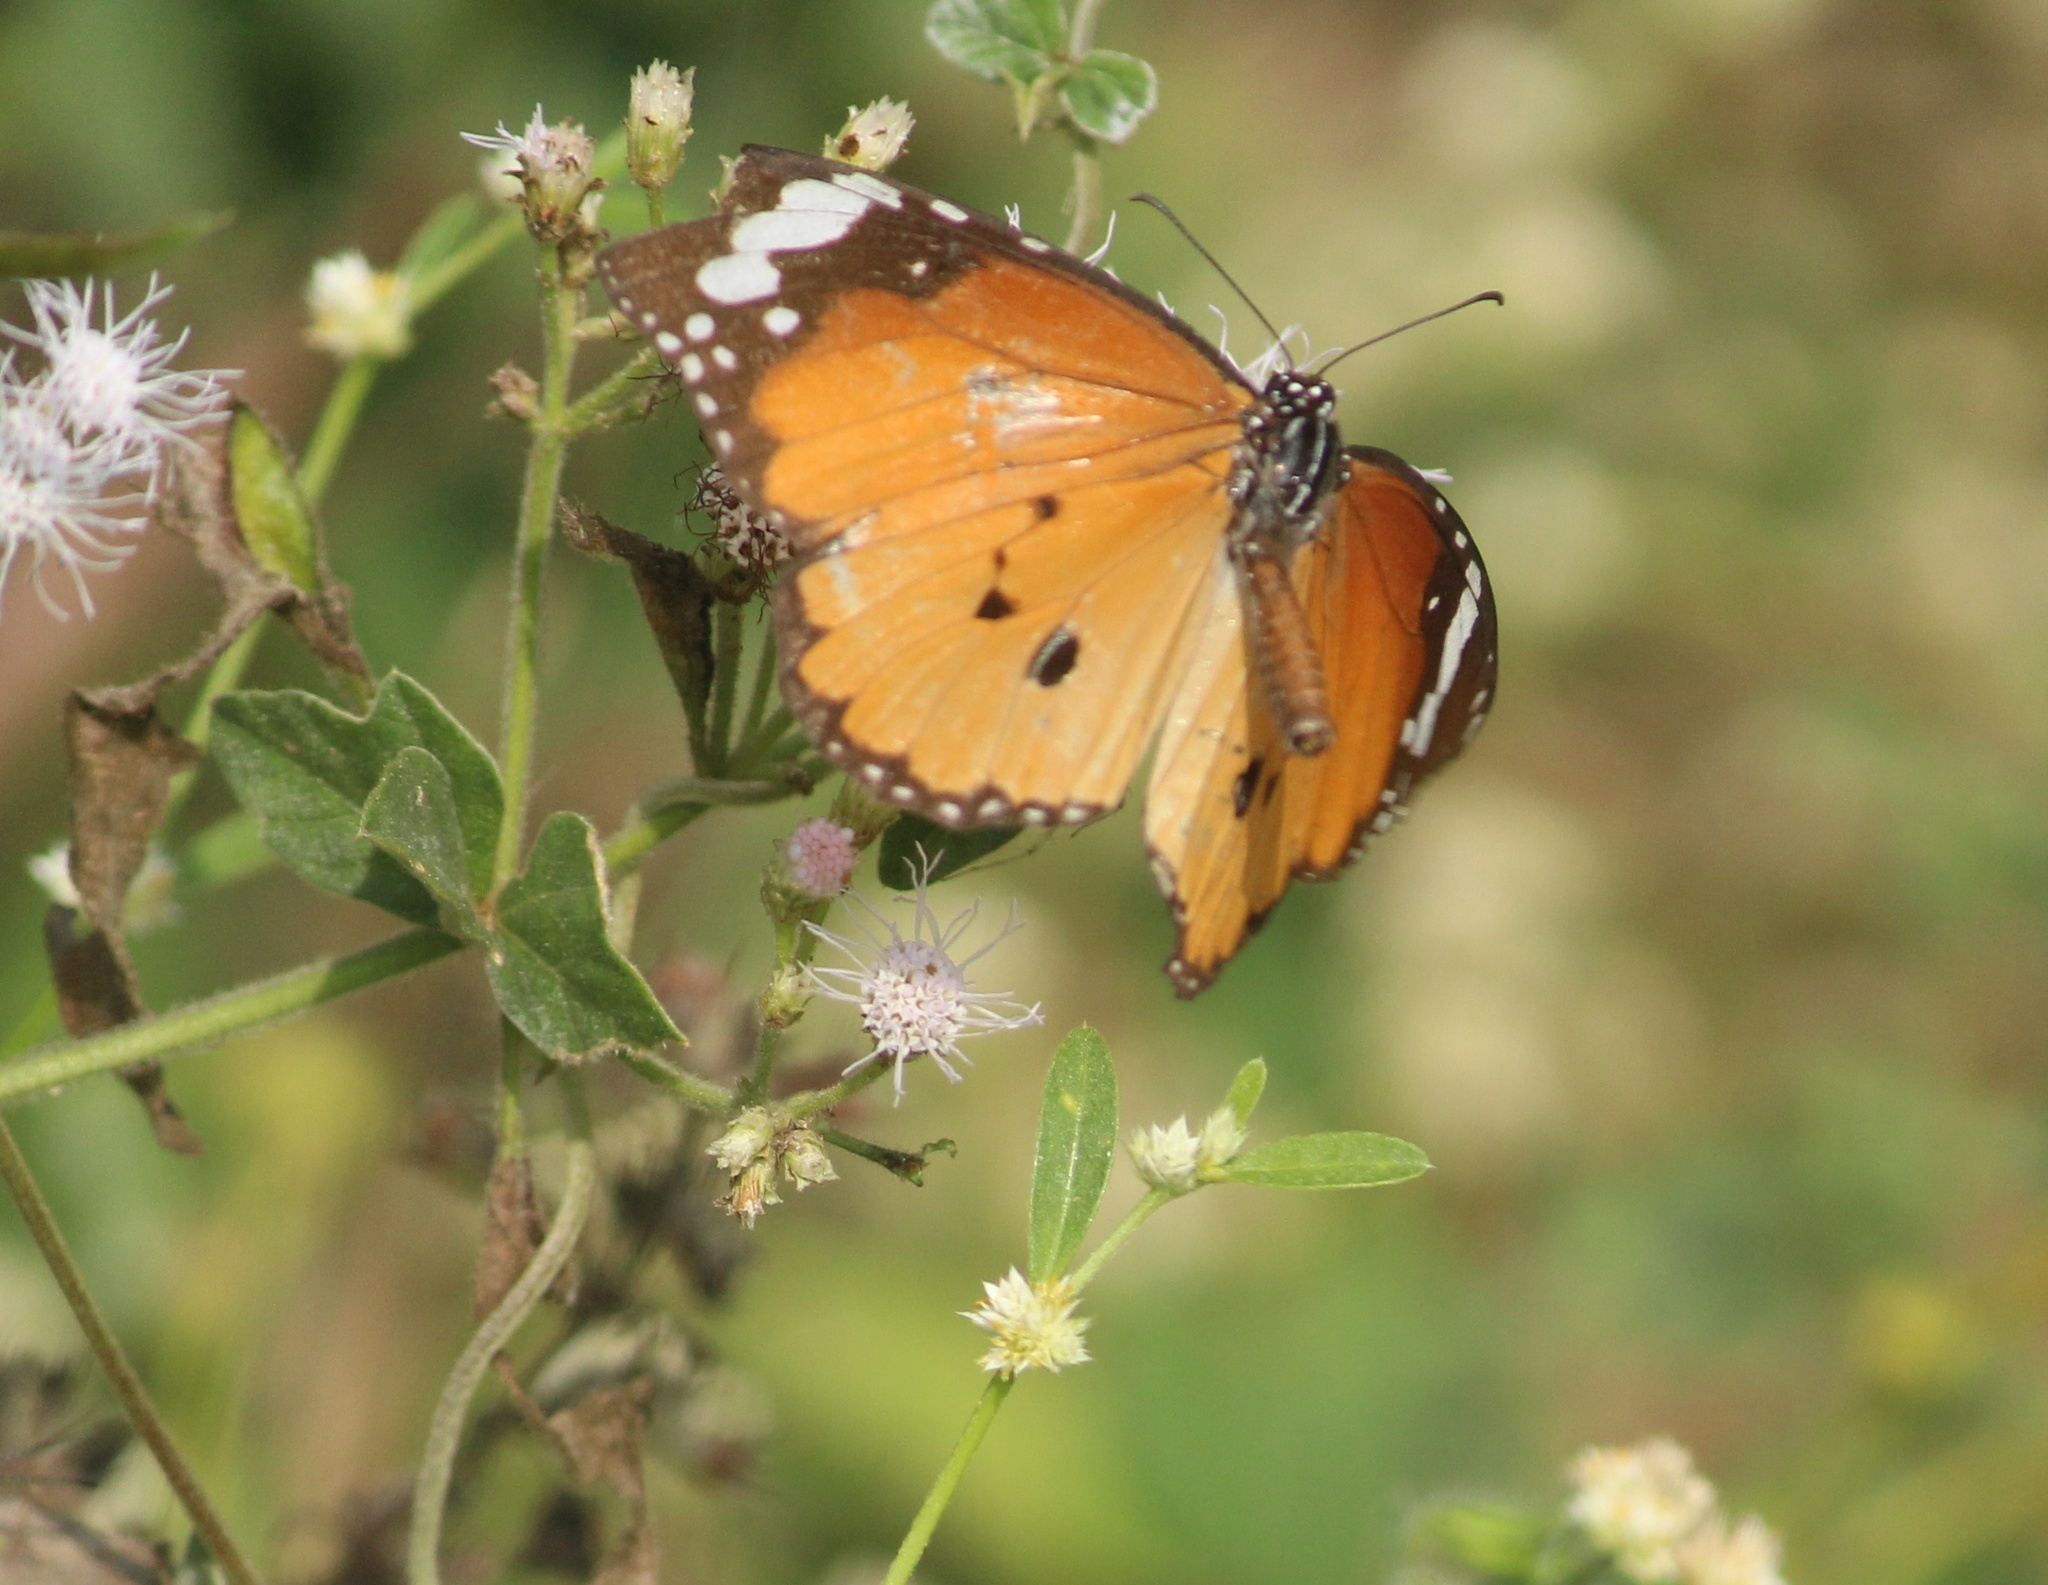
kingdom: Animalia
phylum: Arthropoda
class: Insecta
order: Lepidoptera
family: Nymphalidae
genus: Danaus
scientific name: Danaus chrysippus
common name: Plain tiger
